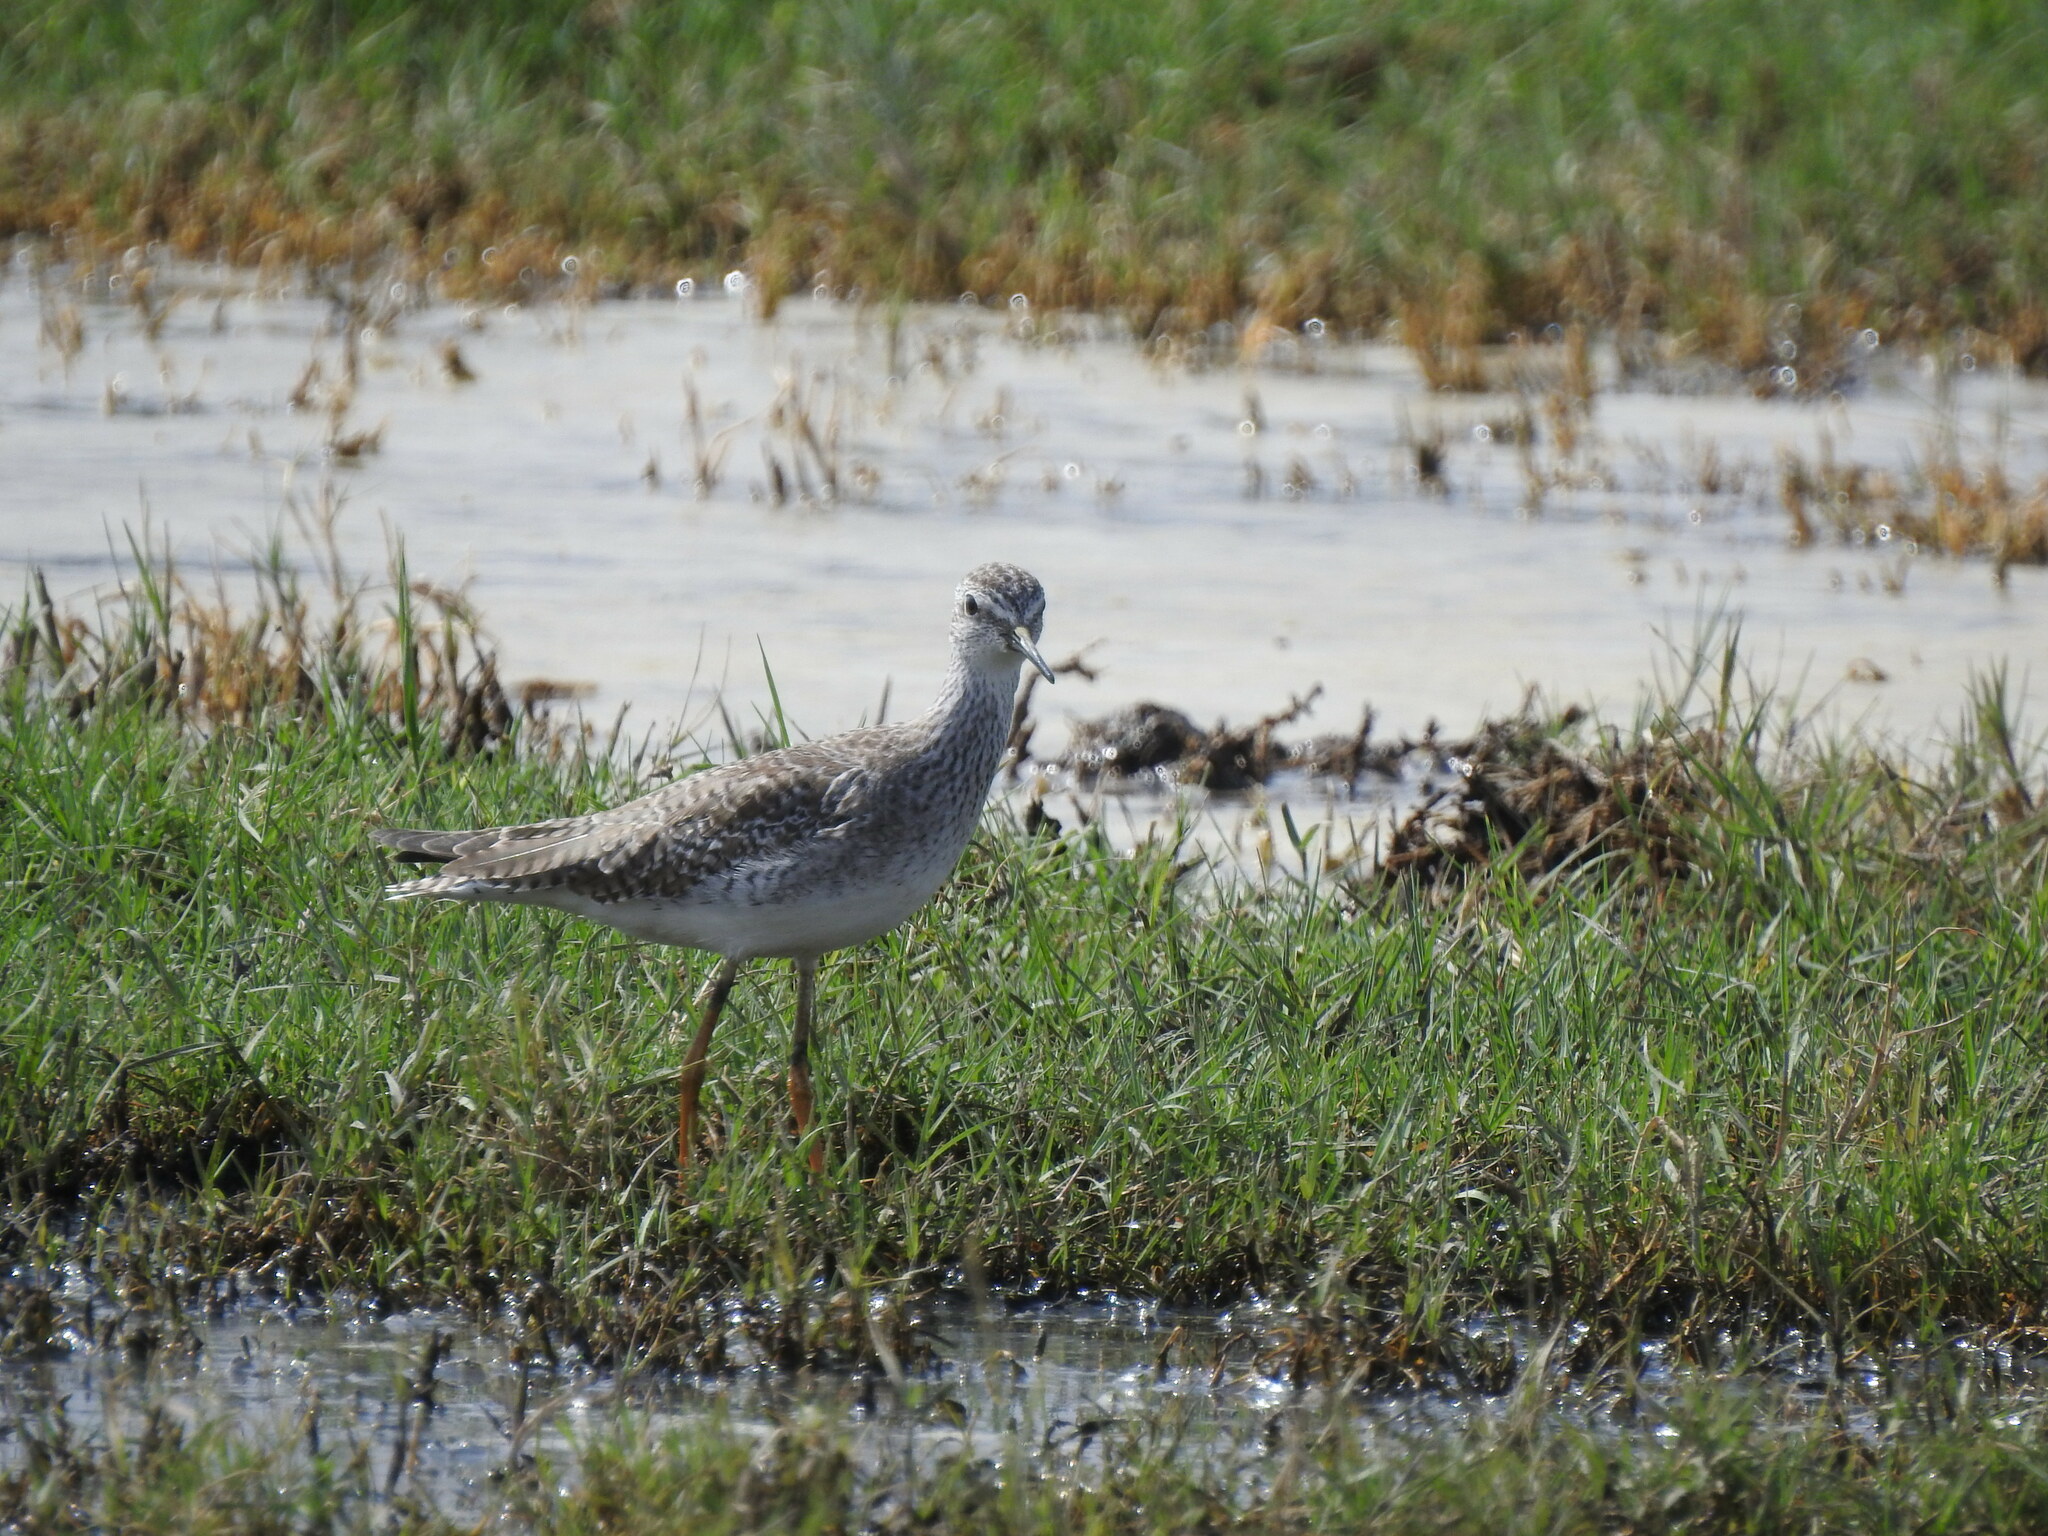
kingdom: Animalia
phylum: Chordata
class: Aves
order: Charadriiformes
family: Scolopacidae
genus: Tringa
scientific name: Tringa flavipes
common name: Lesser yellowlegs
